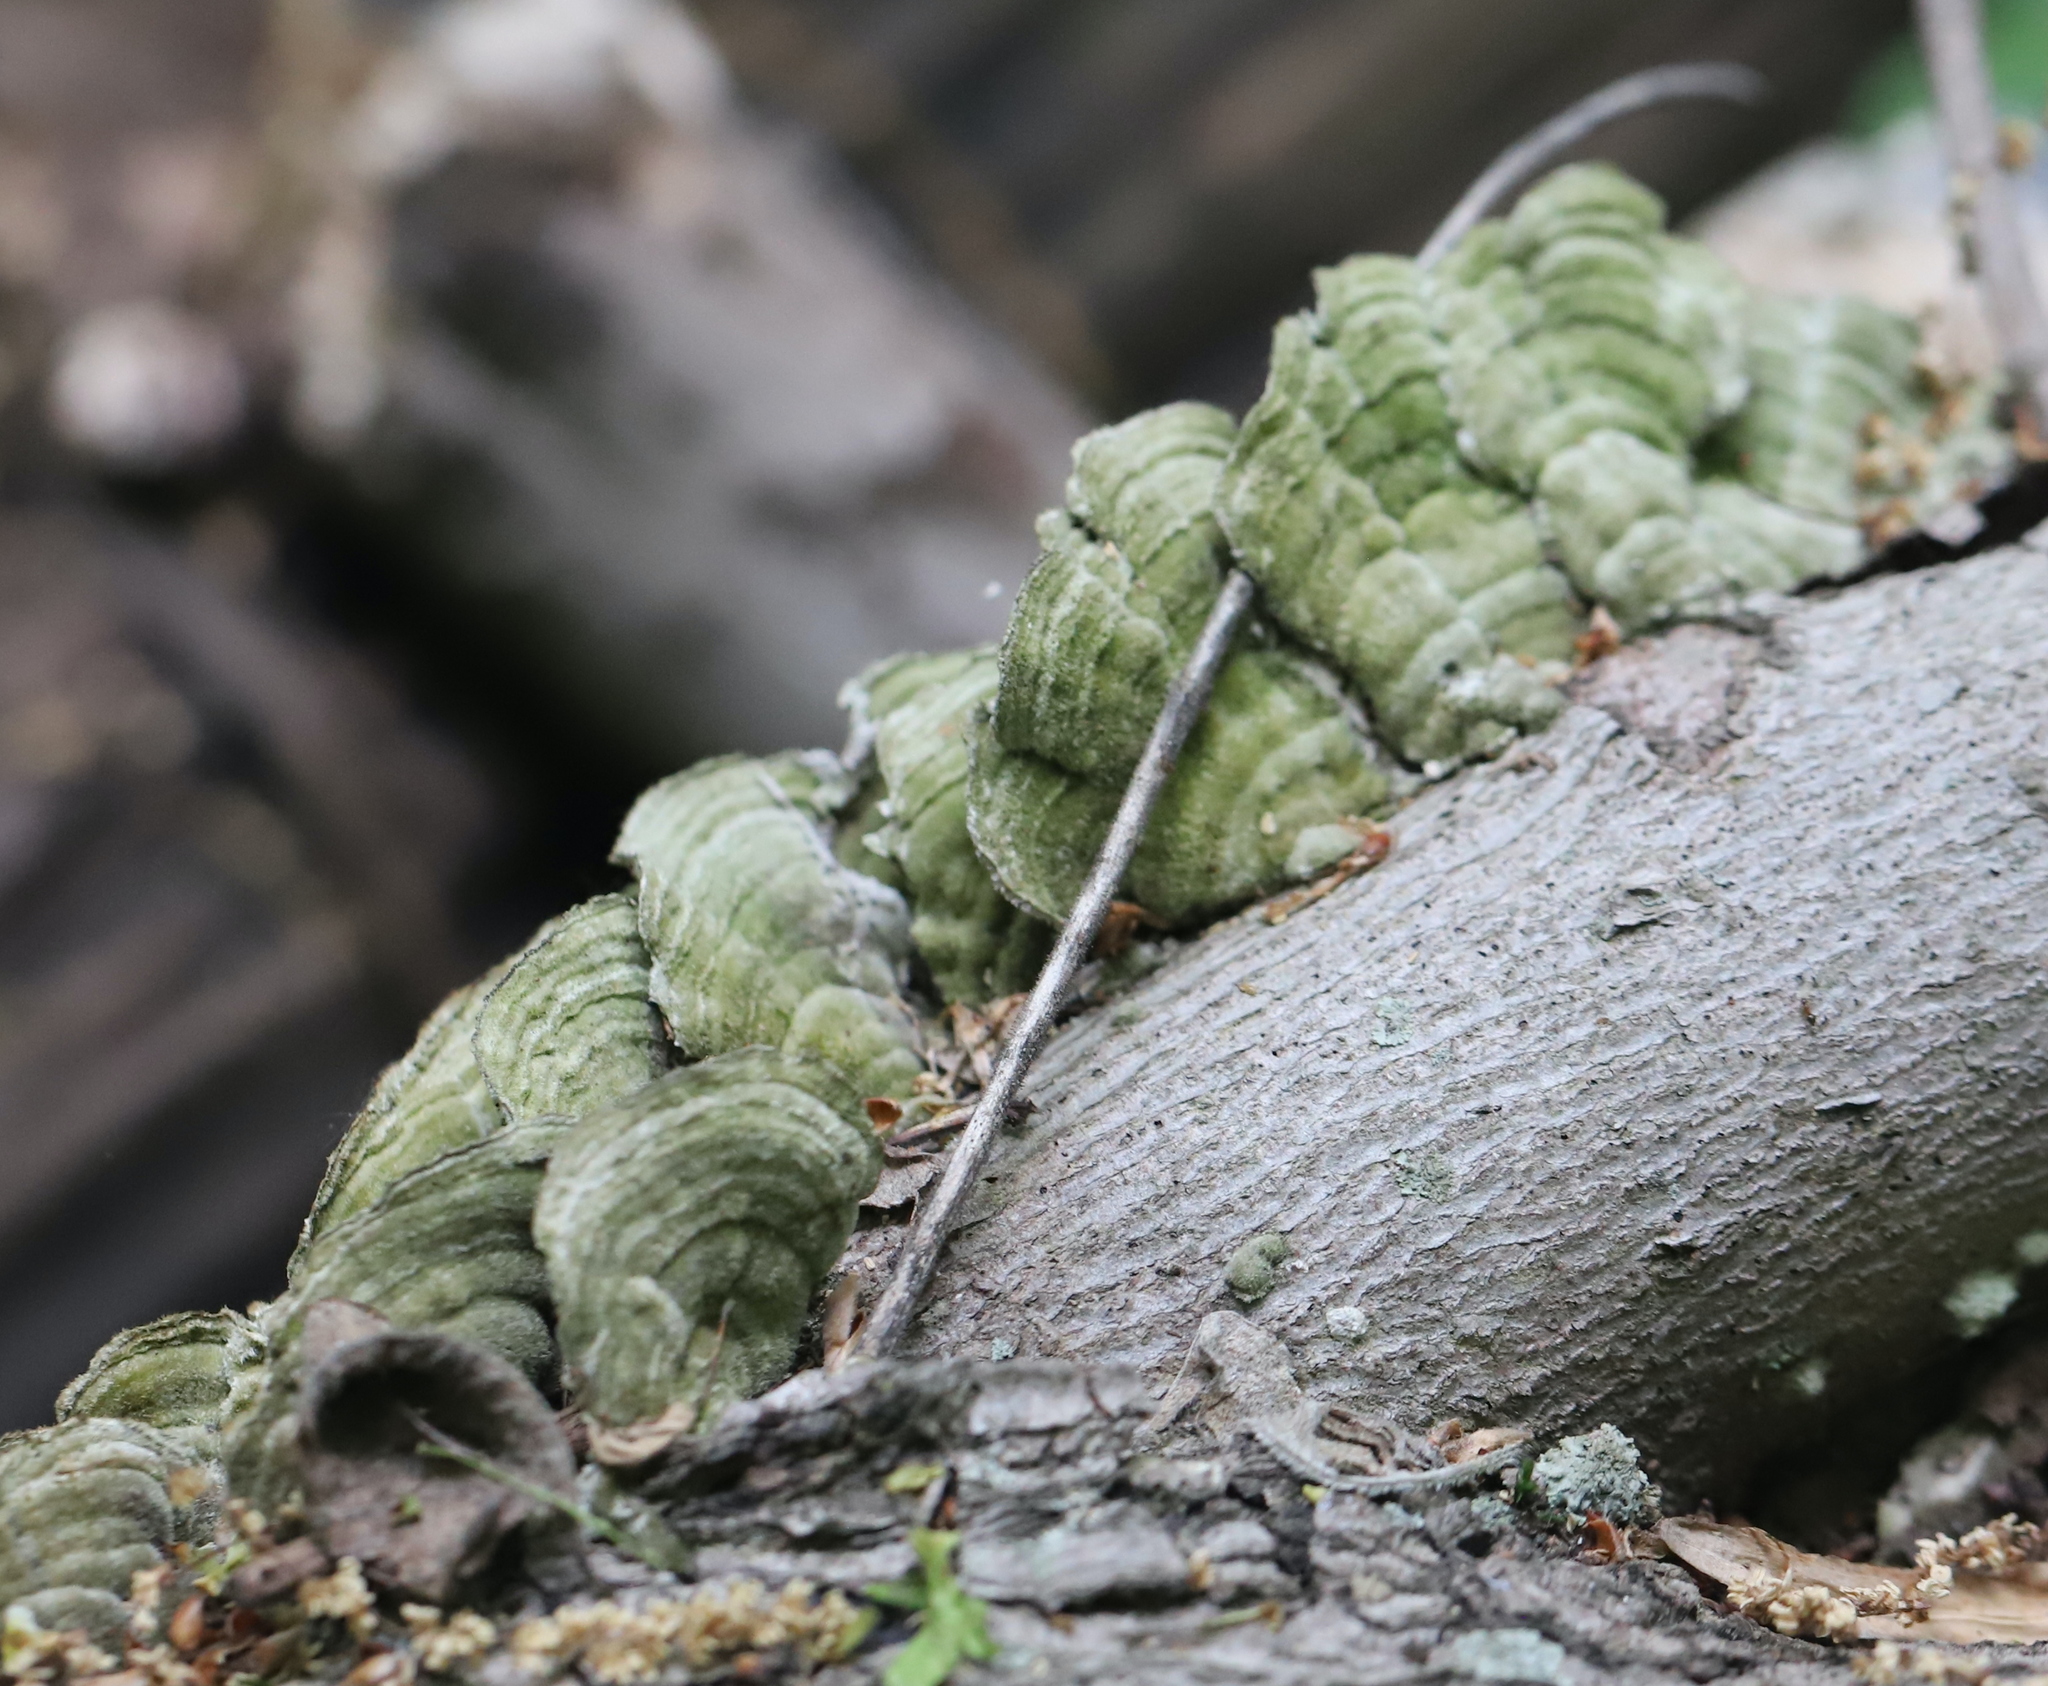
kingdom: Fungi
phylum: Basidiomycota
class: Agaricomycetes
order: Polyporales
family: Cerrenaceae
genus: Cerrena
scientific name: Cerrena unicolor
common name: Mossy maze polypore
